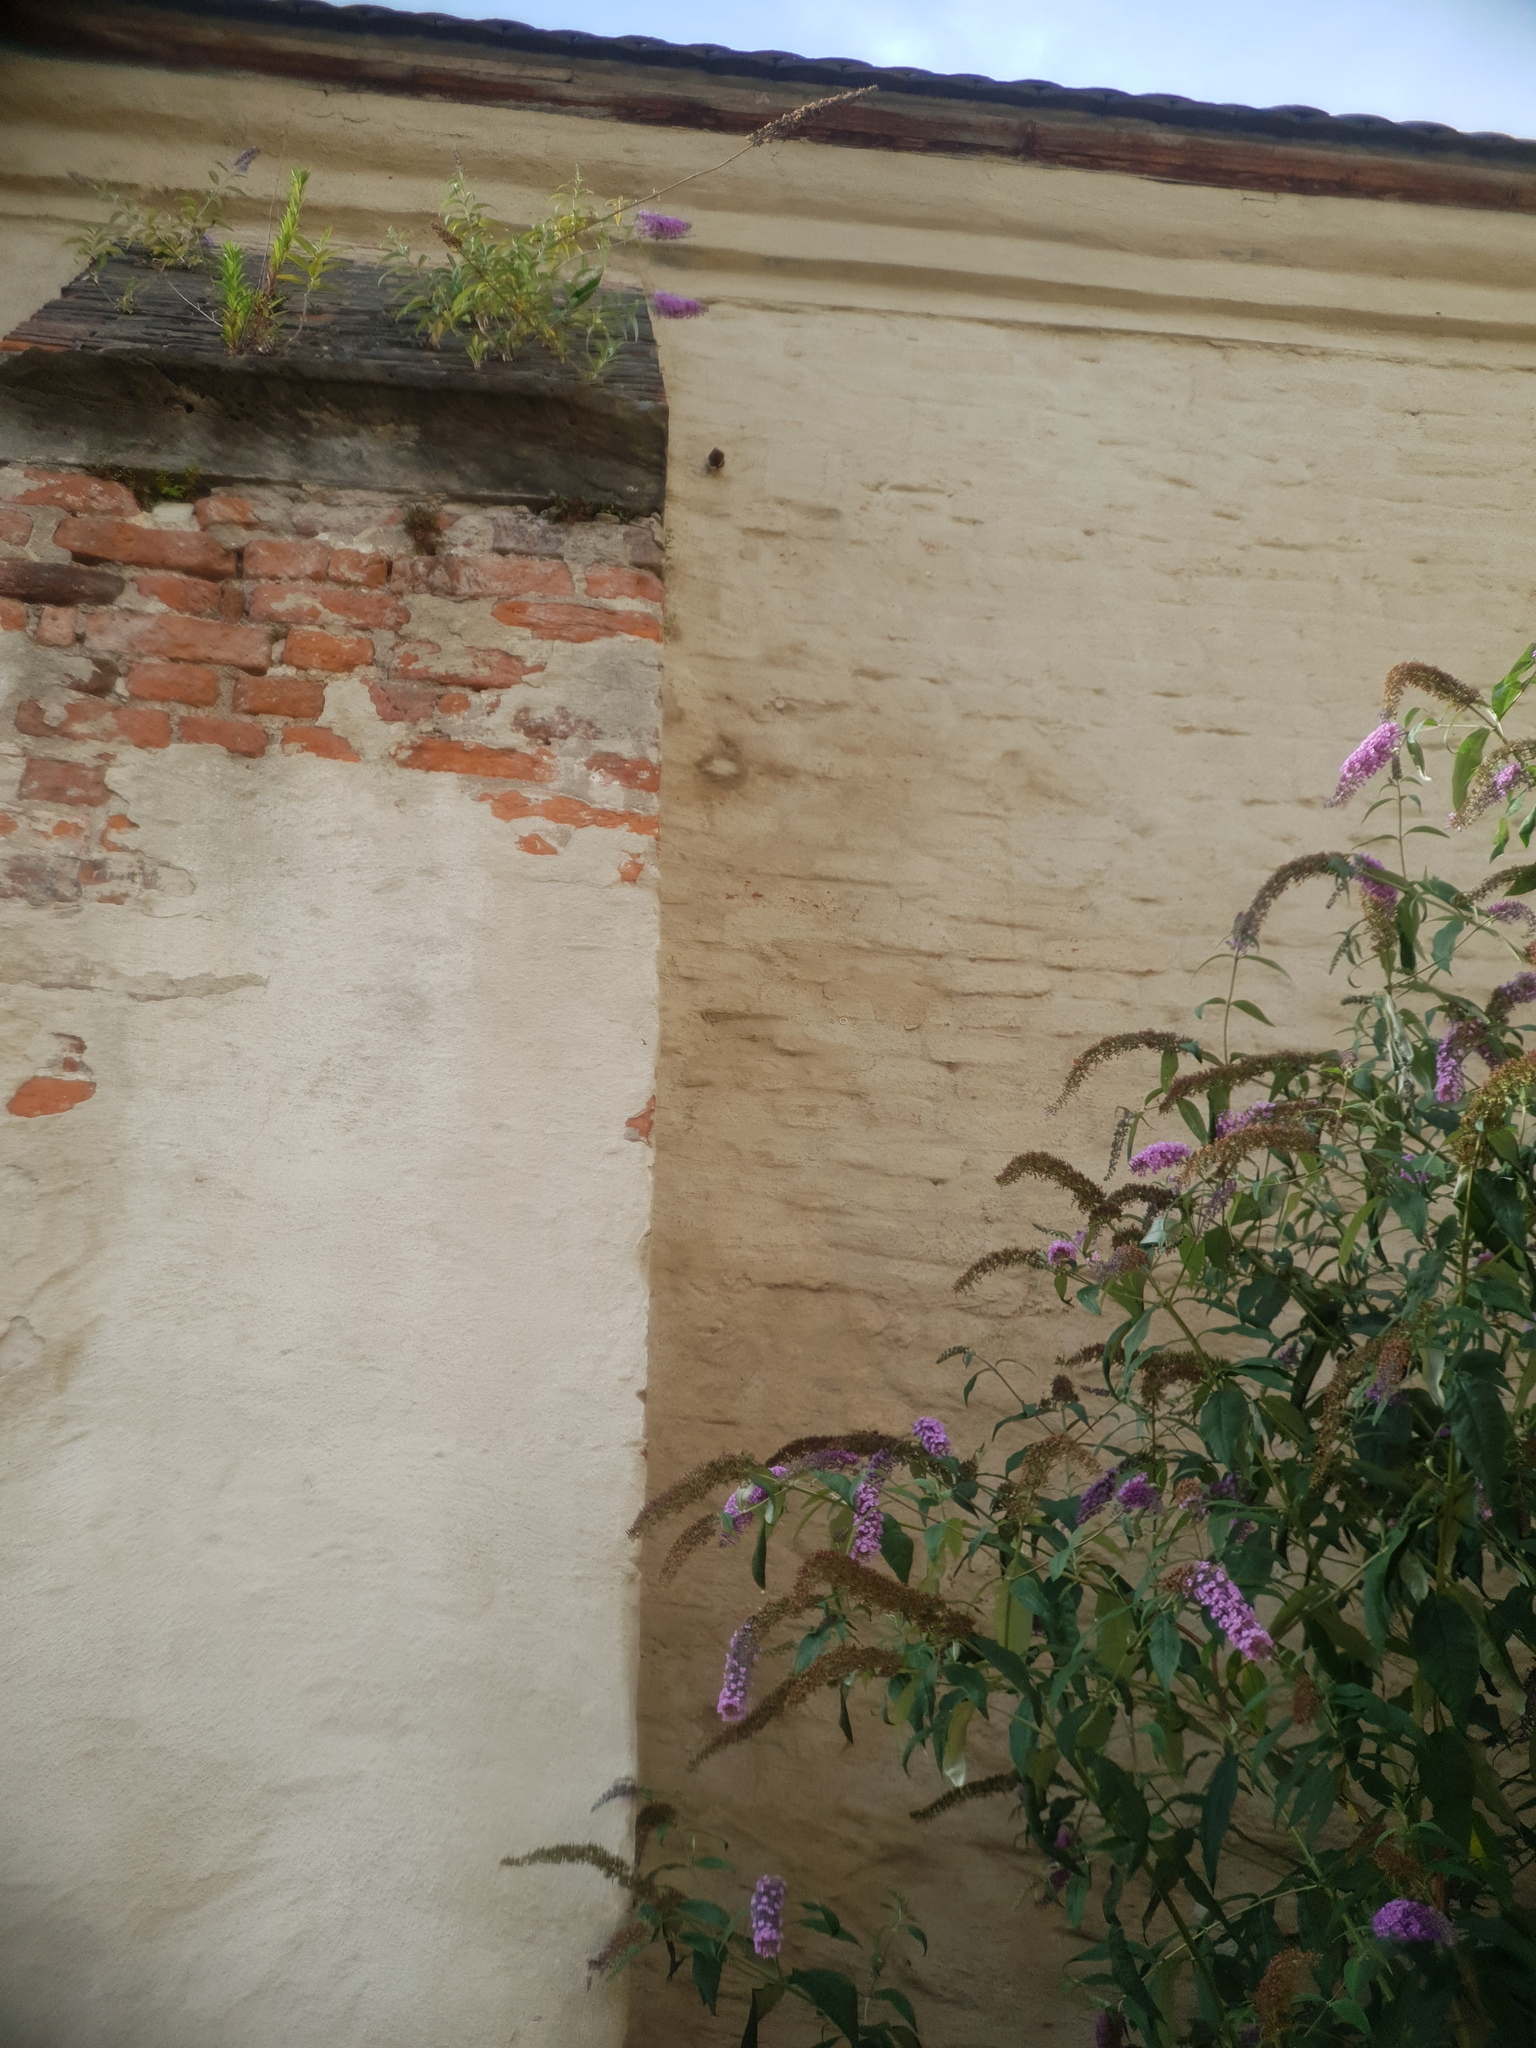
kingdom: Plantae
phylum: Tracheophyta
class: Magnoliopsida
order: Lamiales
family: Scrophulariaceae
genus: Buddleja
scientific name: Buddleja davidii
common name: Butterfly-bush
